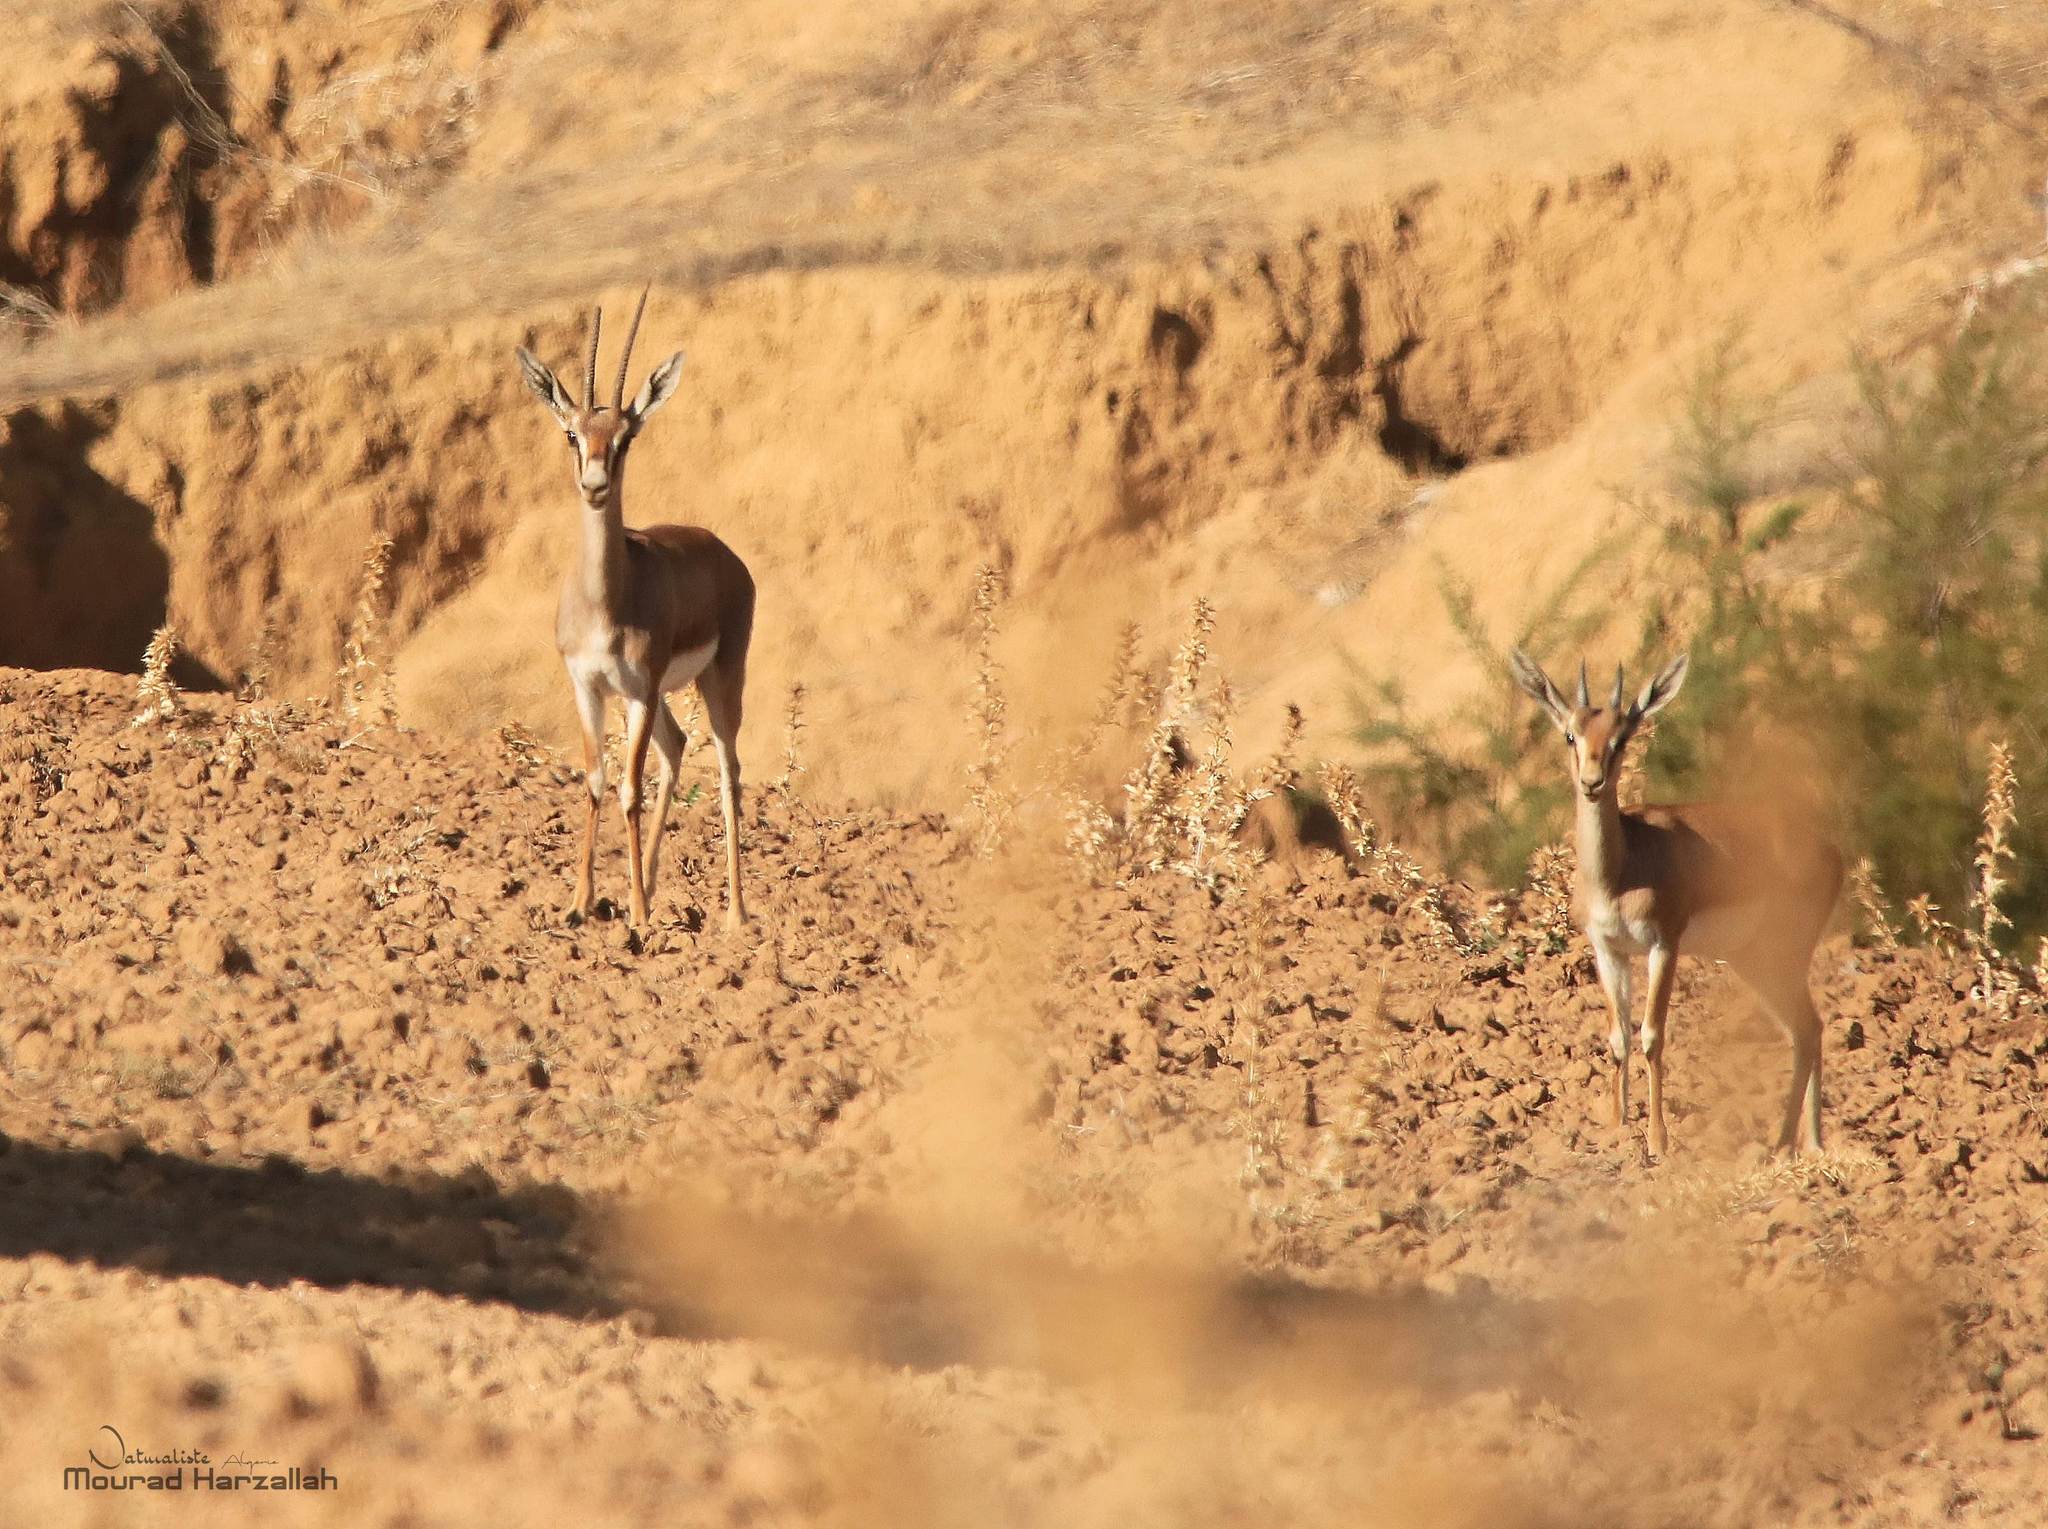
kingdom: Animalia
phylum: Chordata
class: Mammalia
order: Artiodactyla
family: Bovidae
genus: Gazella
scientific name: Gazella cuvieri
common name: Cuvier's gazelle
